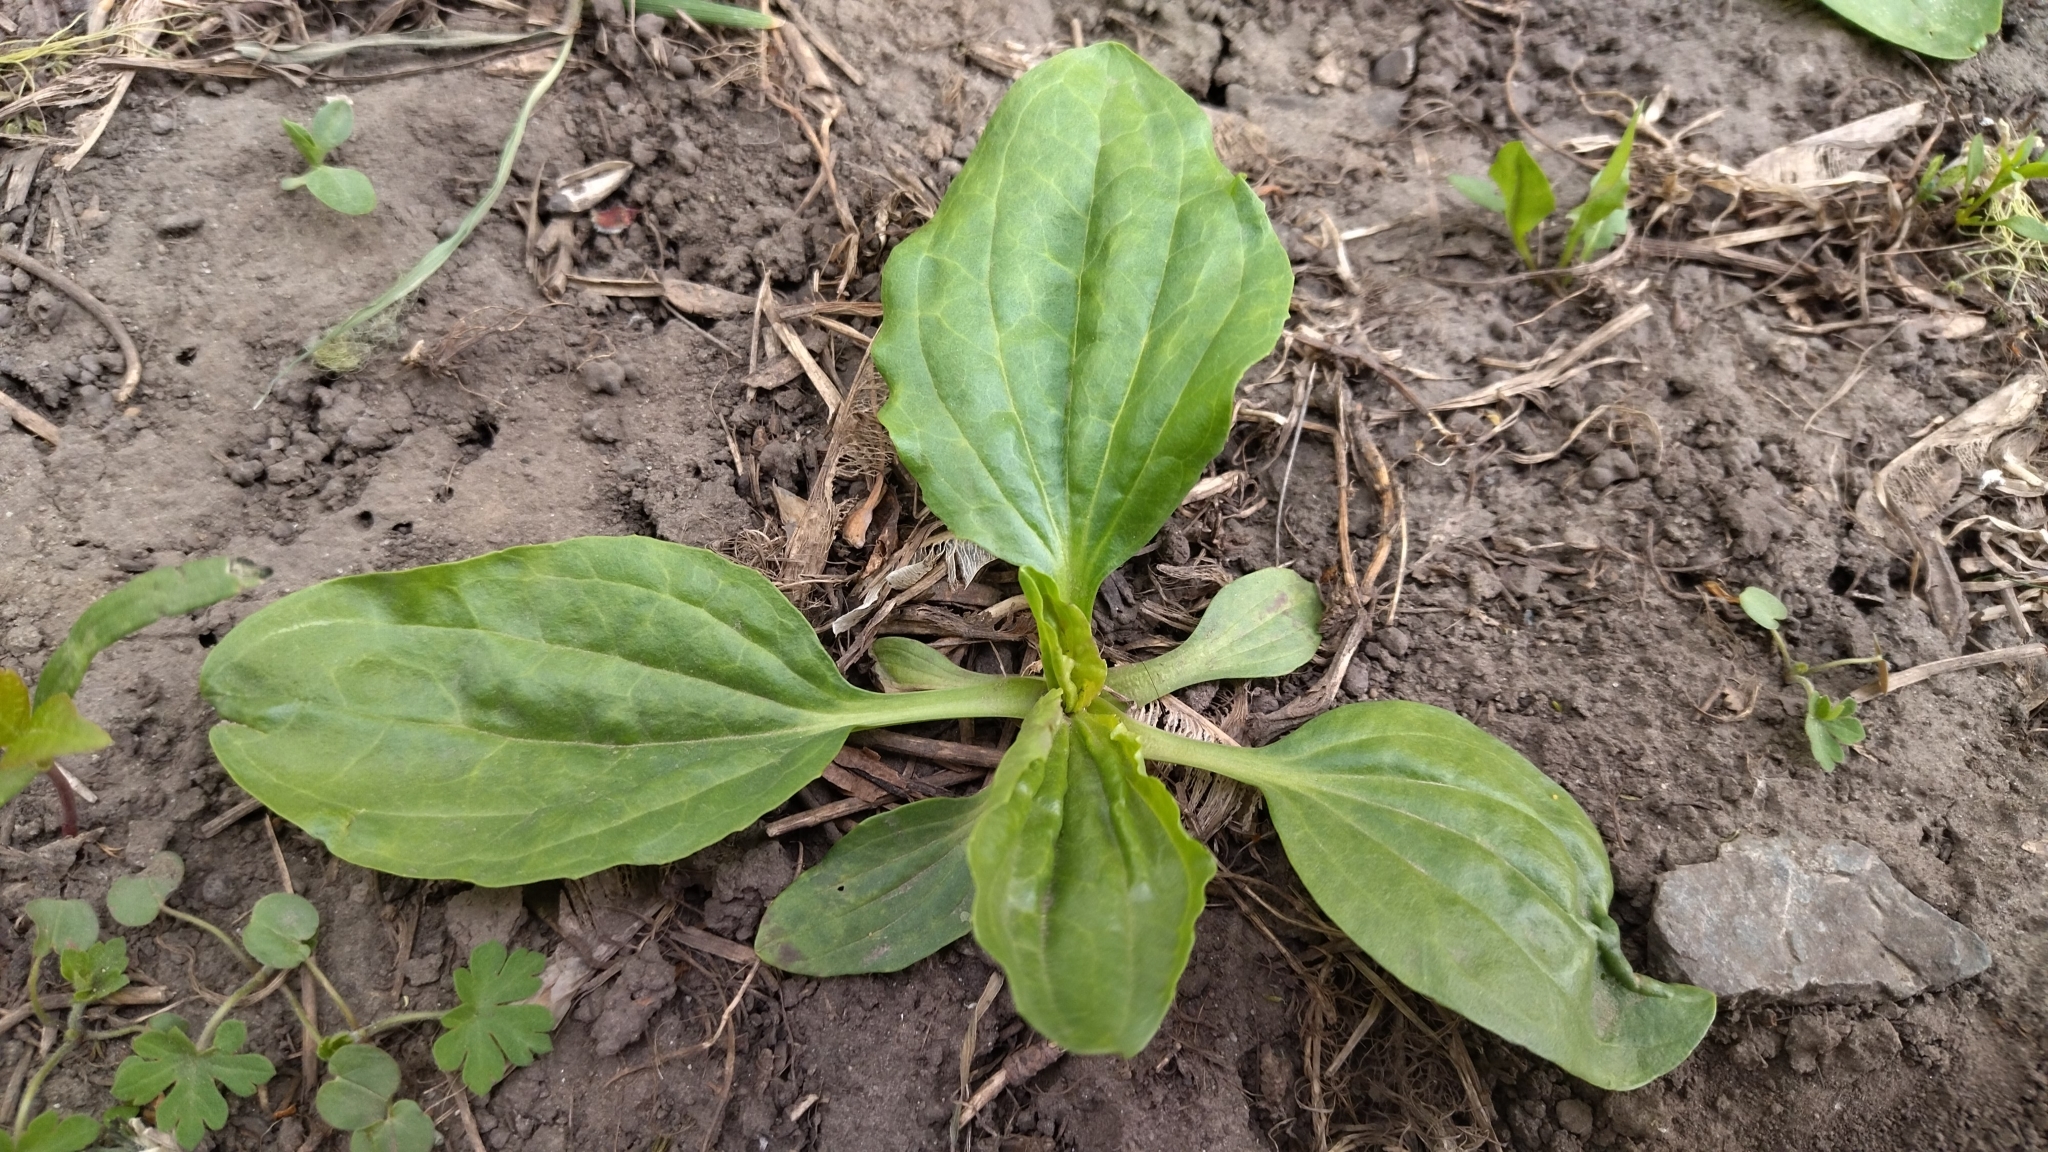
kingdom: Plantae
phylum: Tracheophyta
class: Magnoliopsida
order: Lamiales
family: Plantaginaceae
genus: Plantago
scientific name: Plantago major
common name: Common plantain
